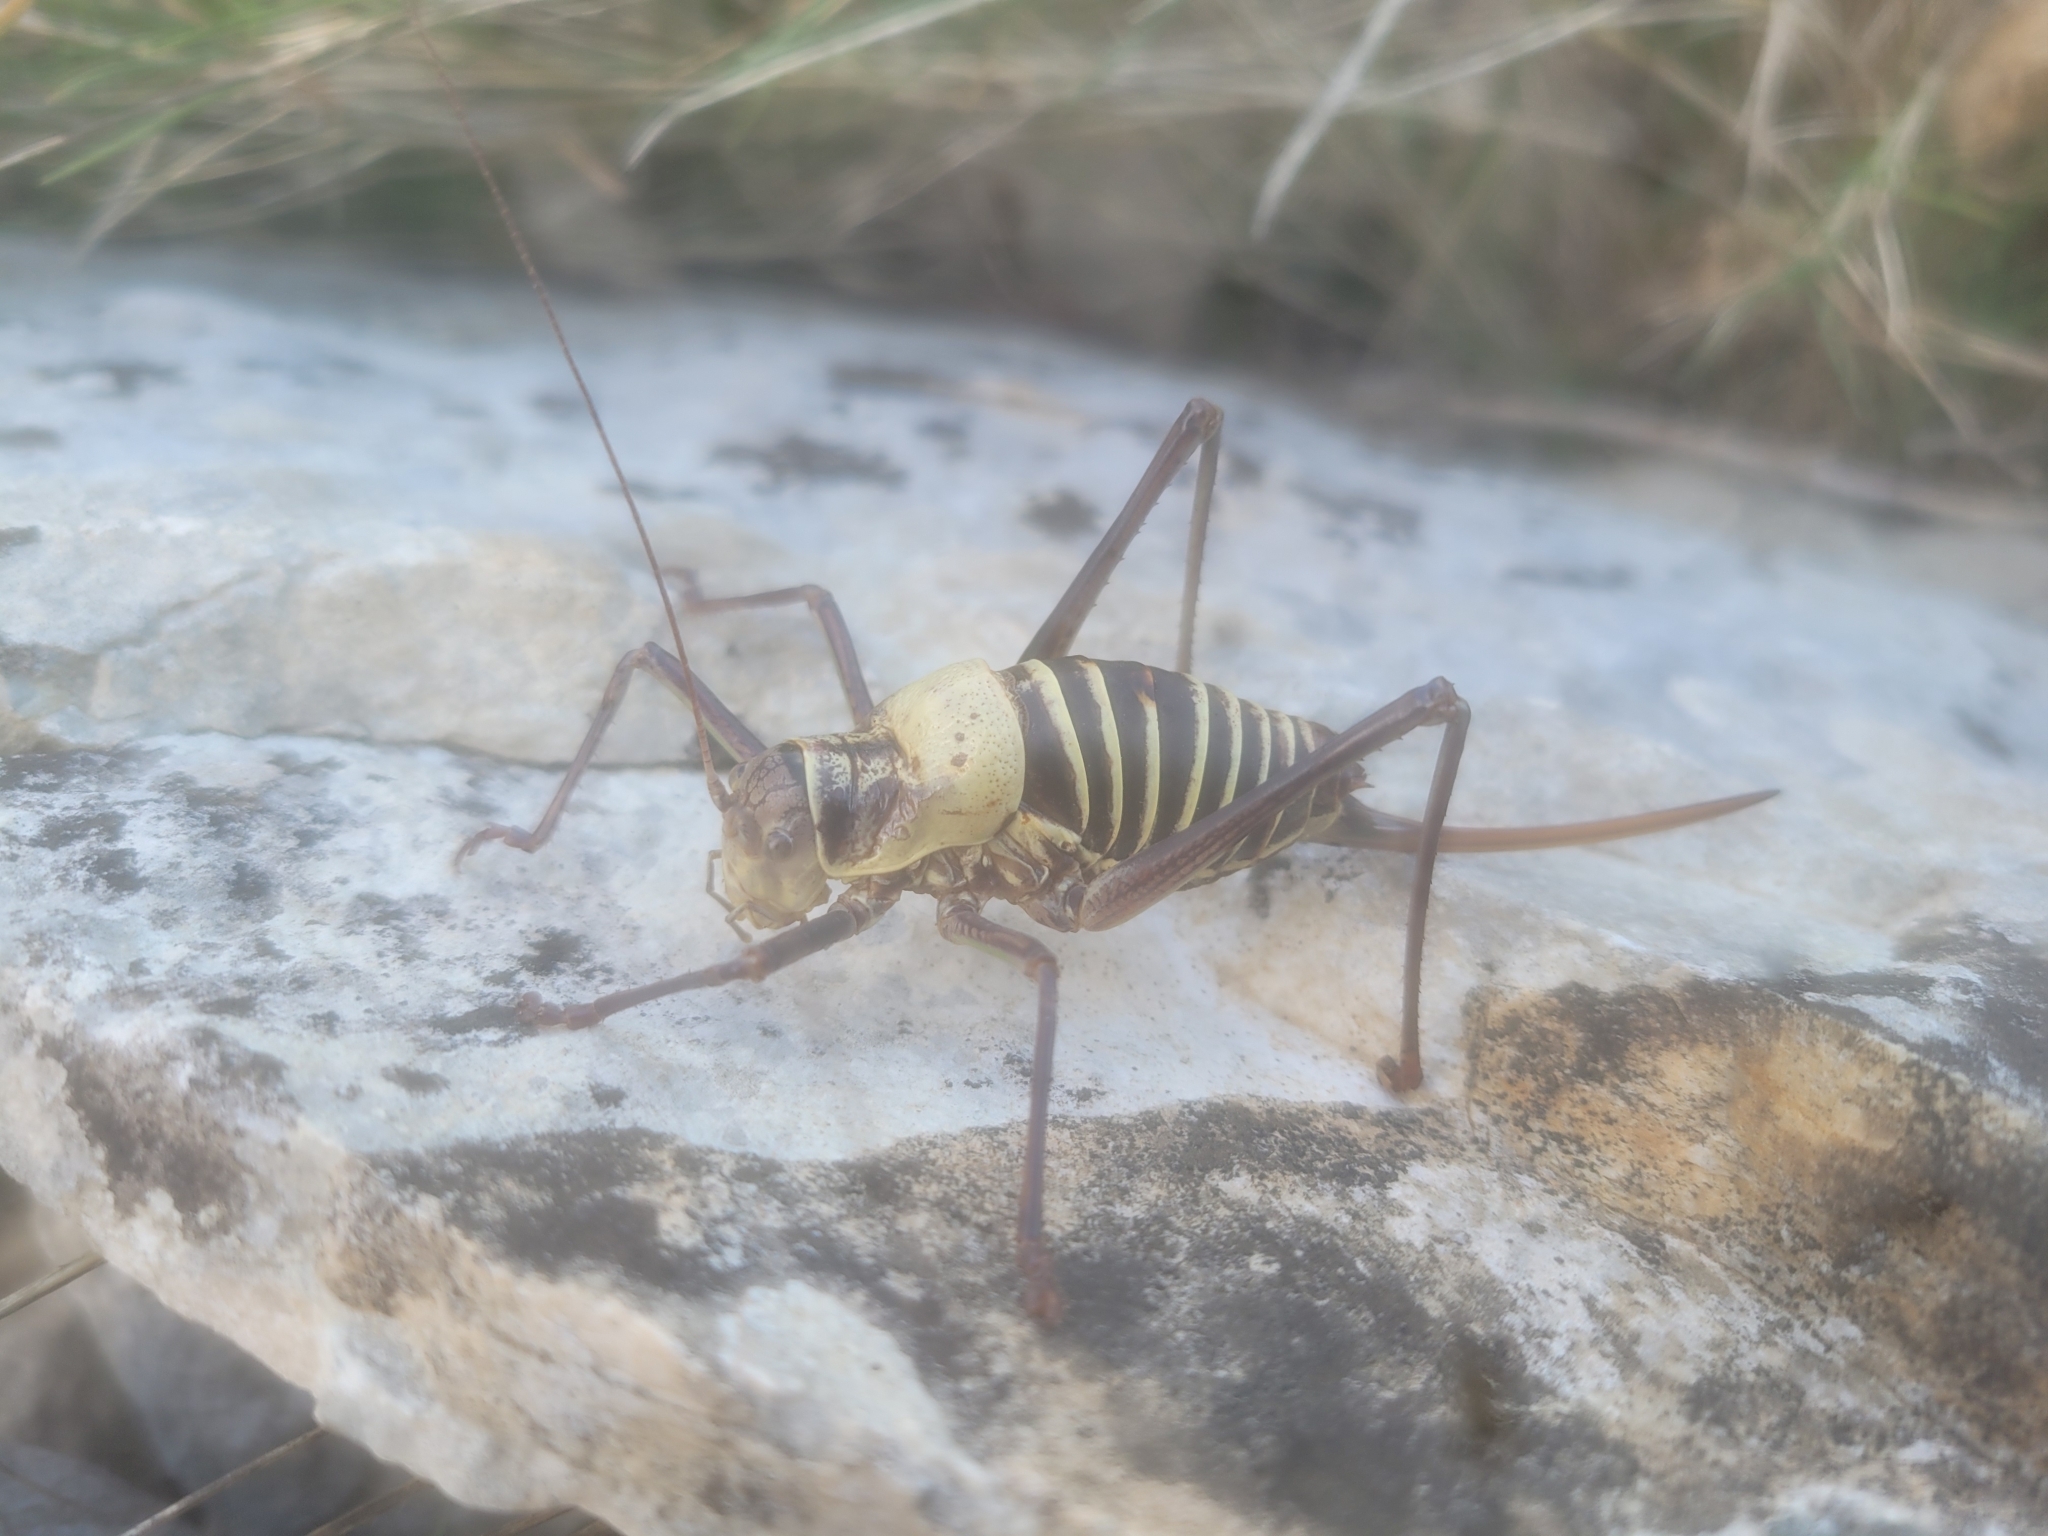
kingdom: Animalia
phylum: Arthropoda
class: Insecta
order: Orthoptera
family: Tettigoniidae
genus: Ephippiger
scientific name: Ephippiger diurnus
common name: Western saddle bush-cricket
